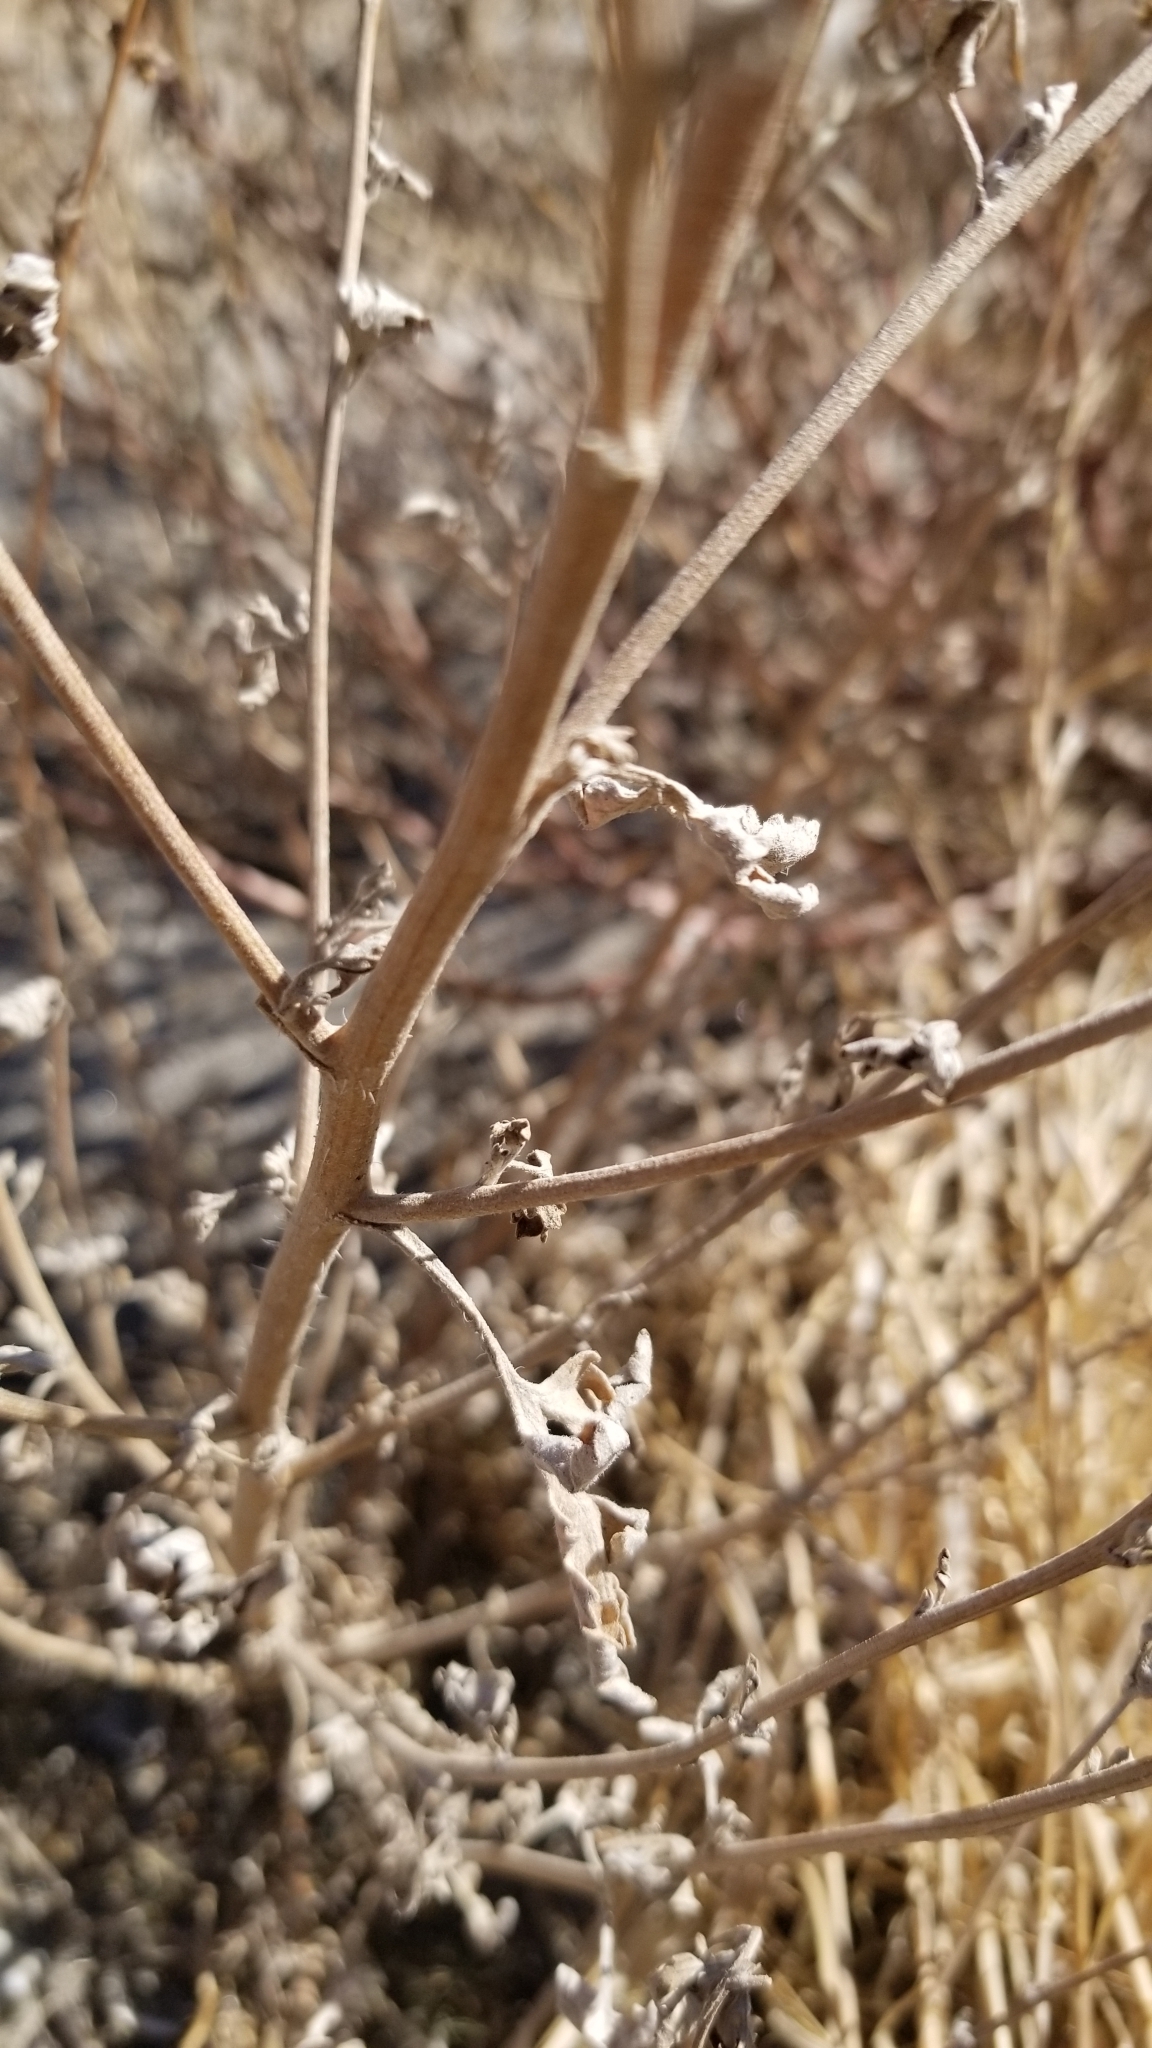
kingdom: Plantae
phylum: Tracheophyta
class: Magnoliopsida
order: Asterales
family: Asteraceae
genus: Ambrosia
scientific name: Ambrosia acanthicarpa
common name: Hooker's bur ragweed
